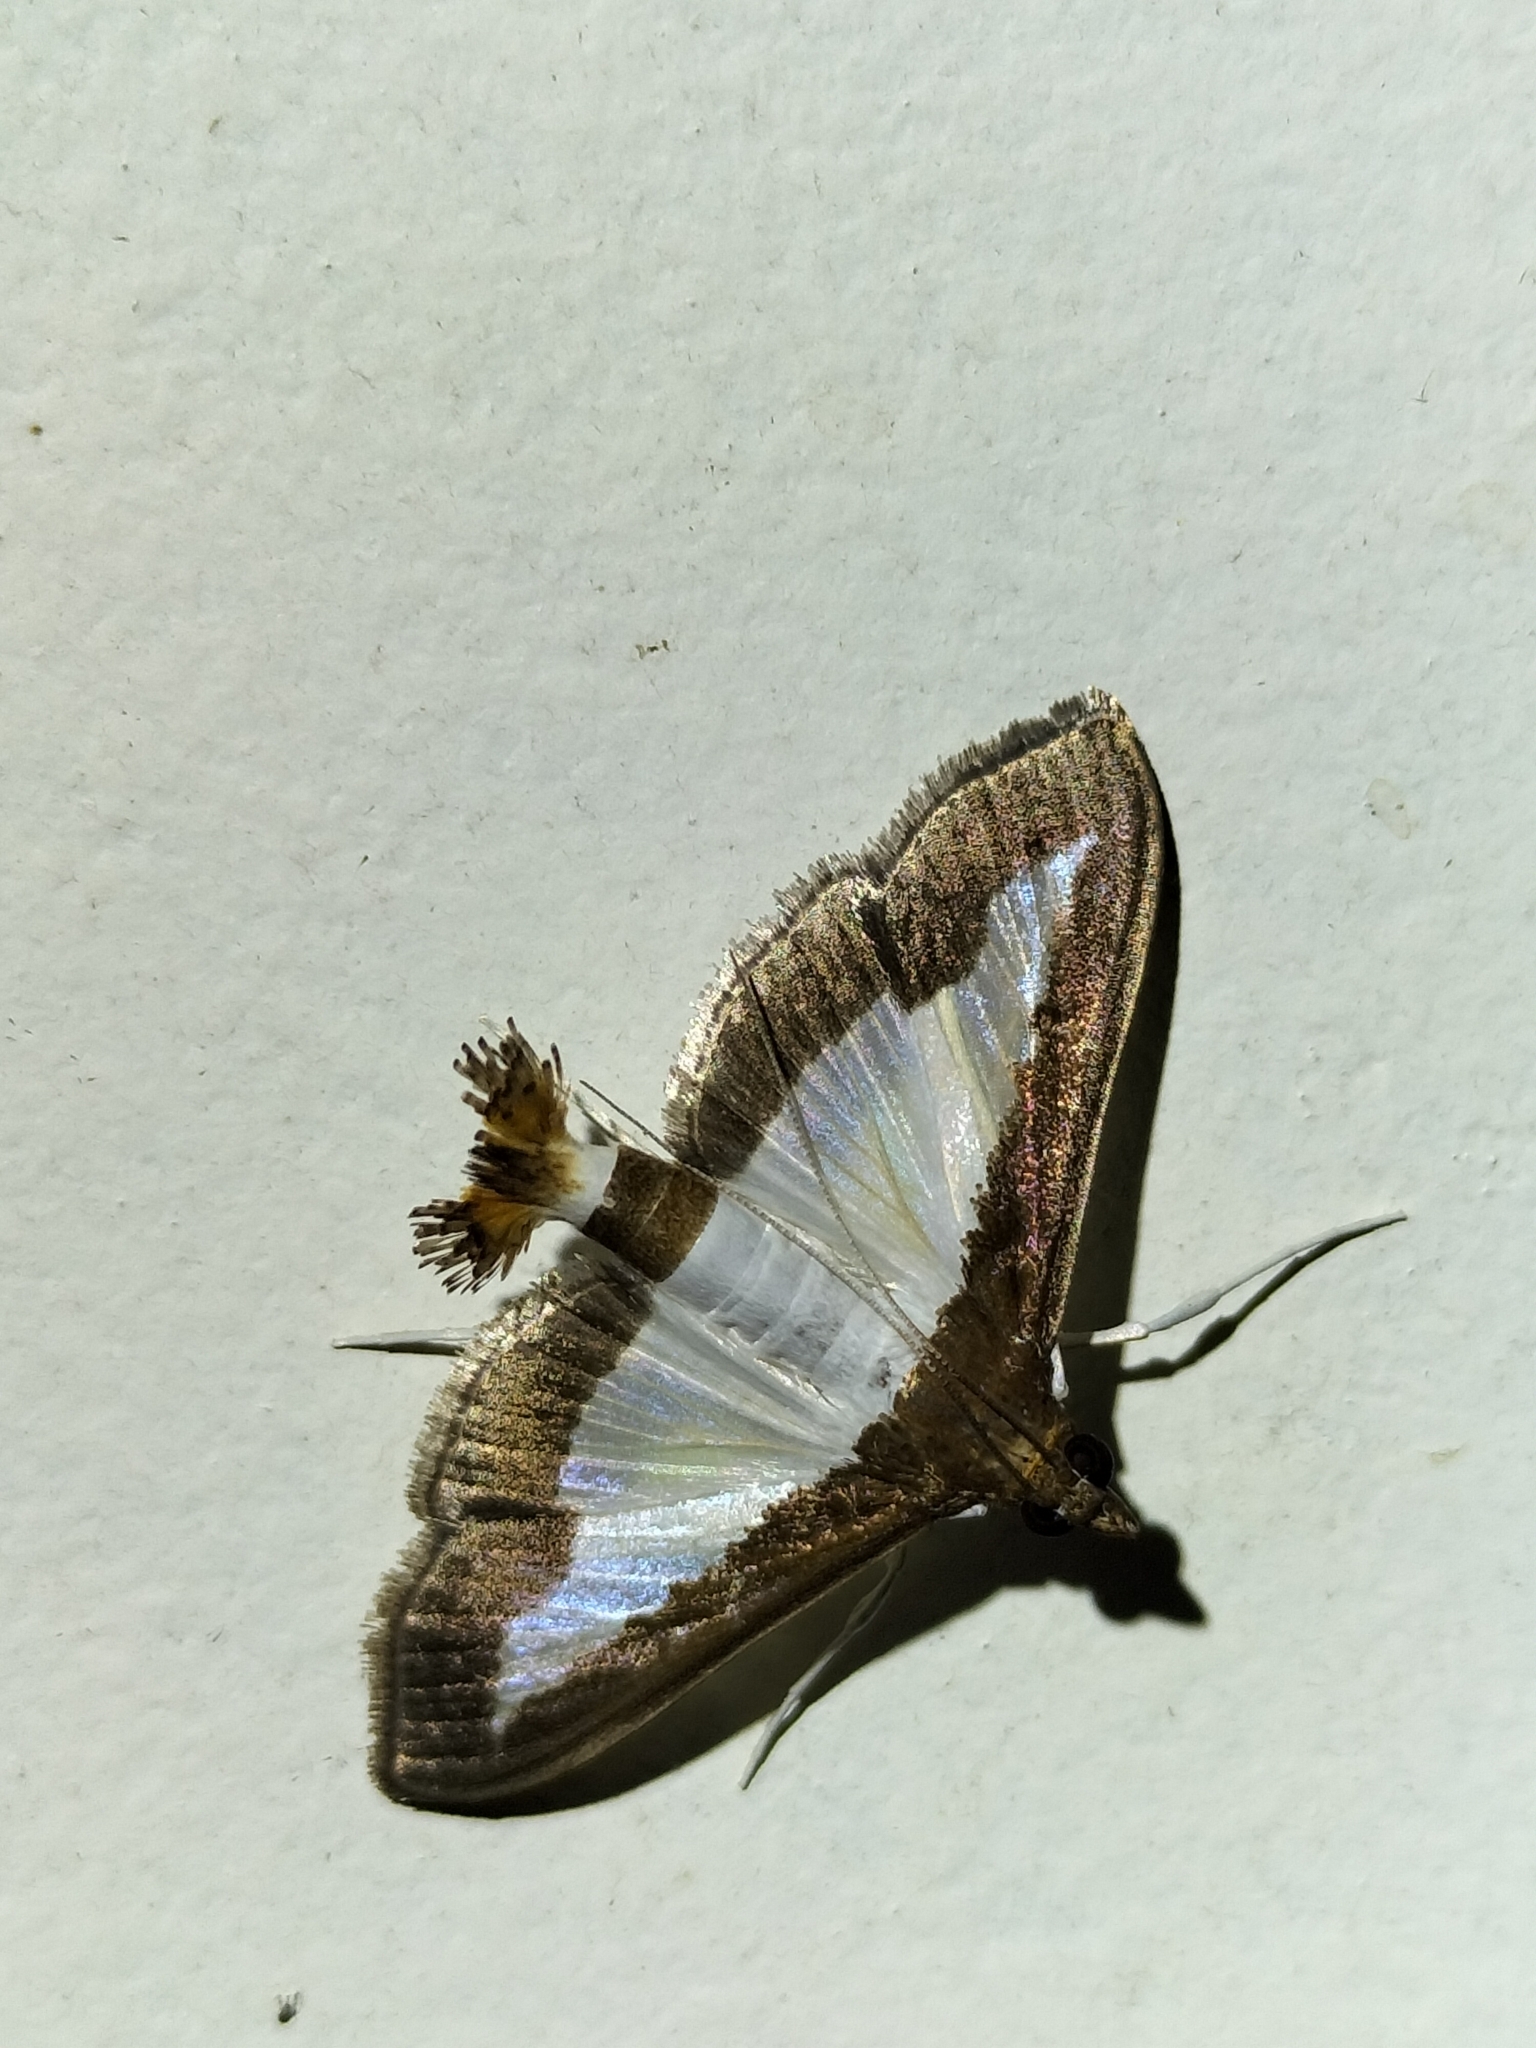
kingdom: Animalia
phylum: Arthropoda
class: Insecta
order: Lepidoptera
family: Crambidae
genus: Diaphania
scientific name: Diaphania indica
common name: Cucumber moth
